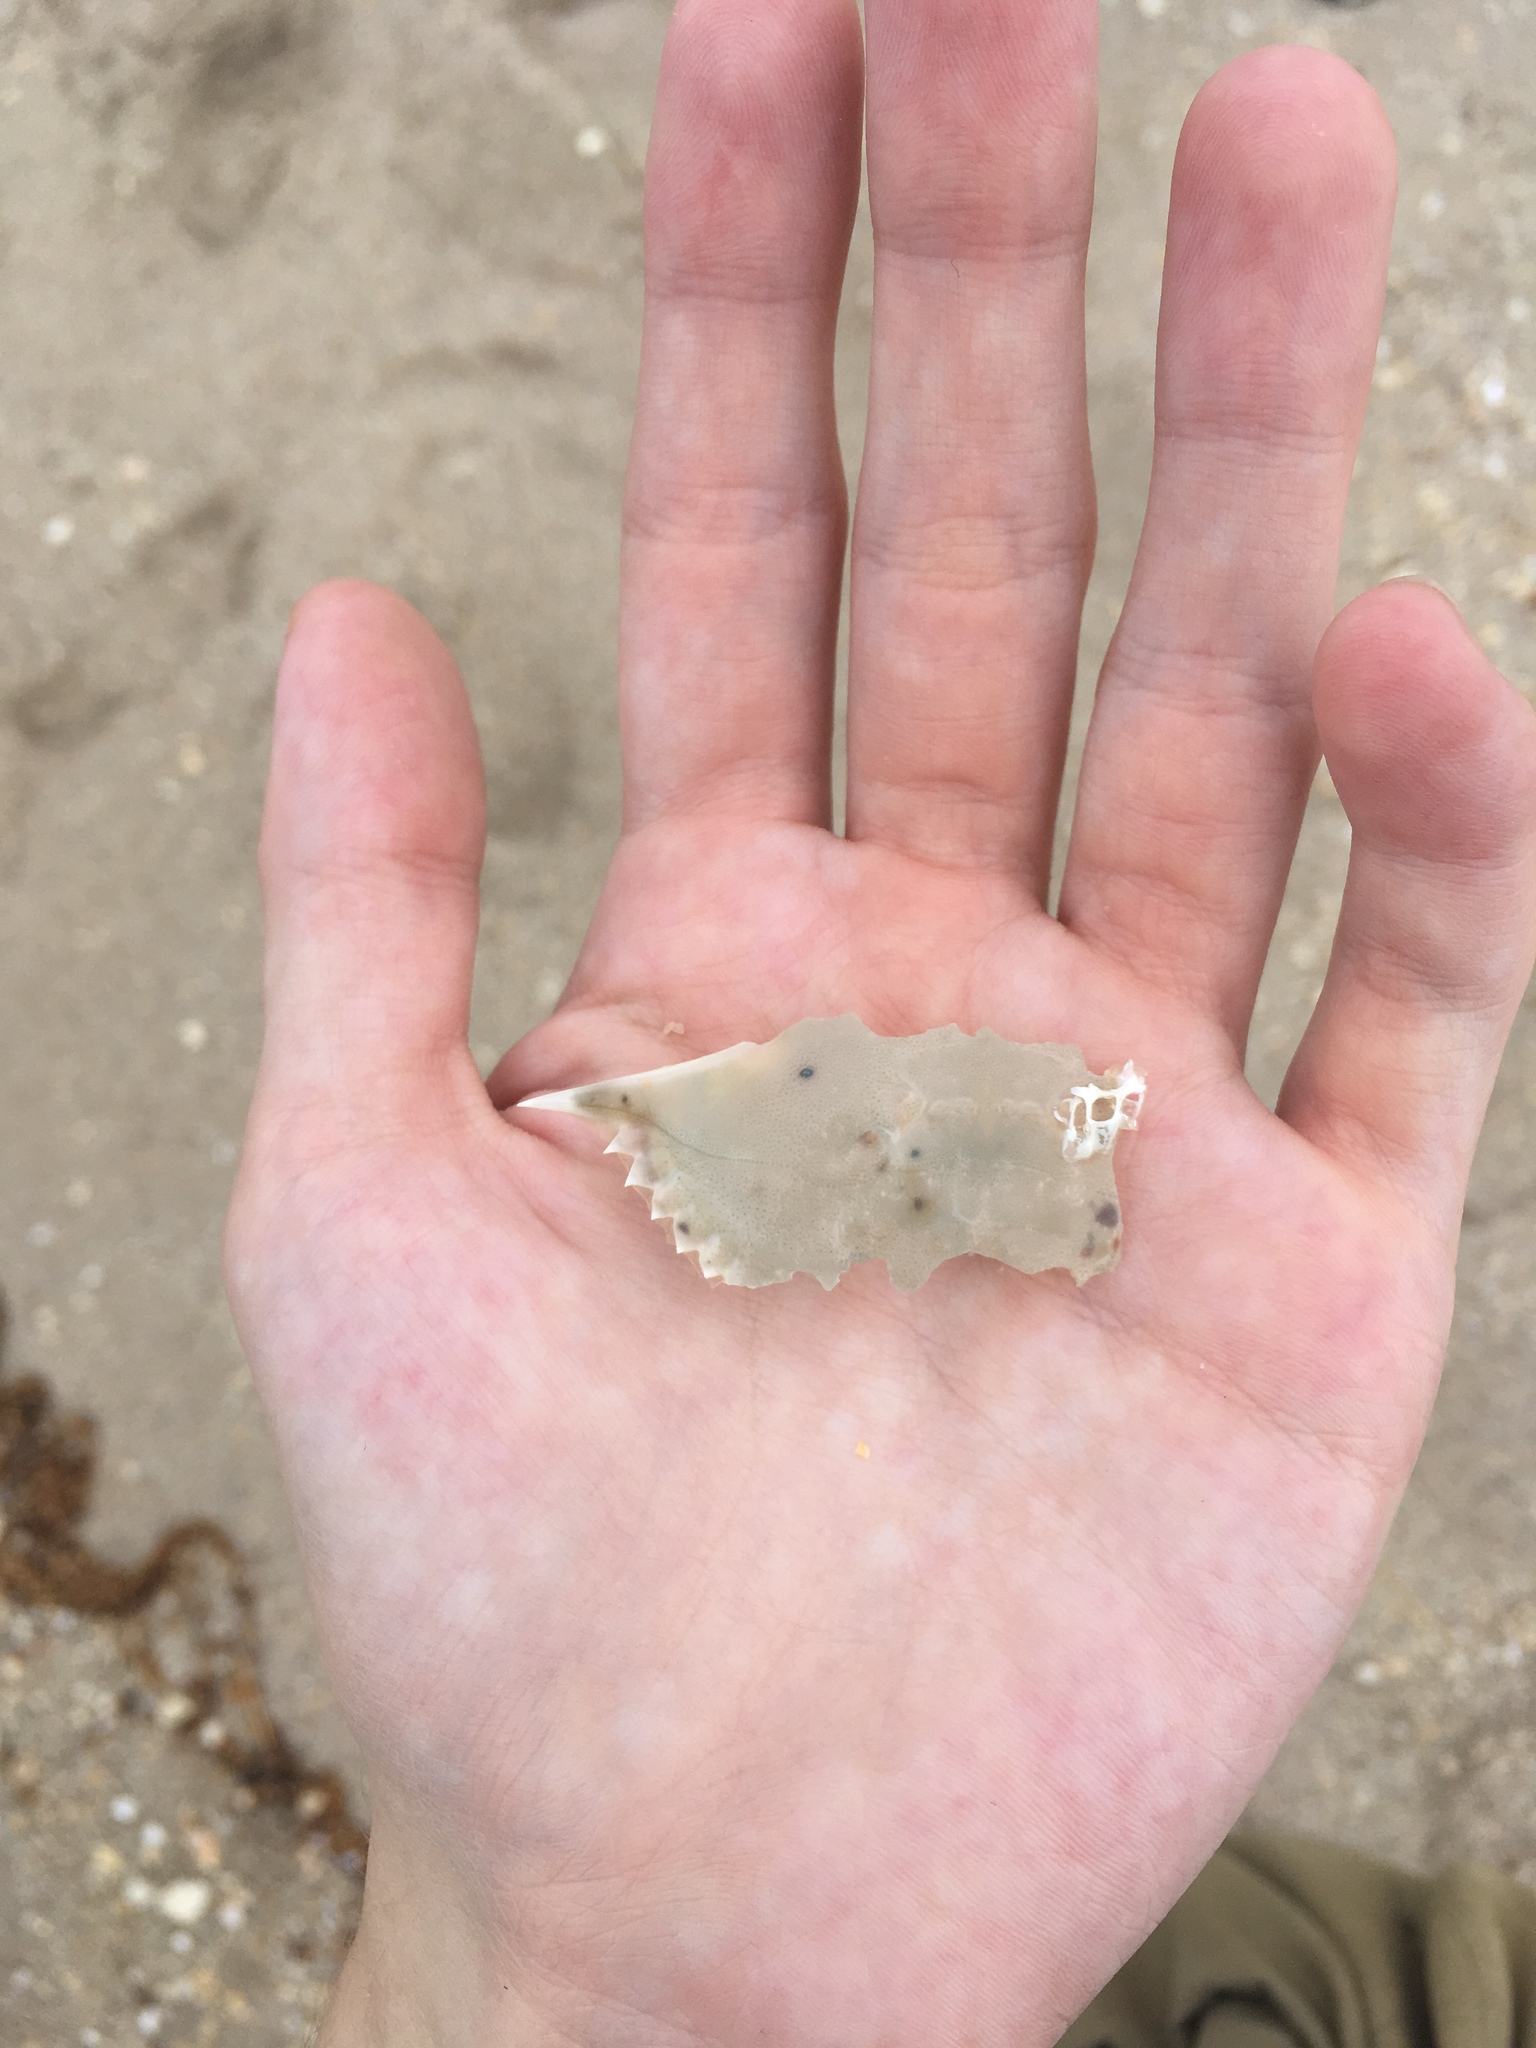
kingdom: Animalia
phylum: Arthropoda
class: Malacostraca
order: Decapoda
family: Portunidae
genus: Callinectes
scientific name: Callinectes sapidus
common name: Blue crab
